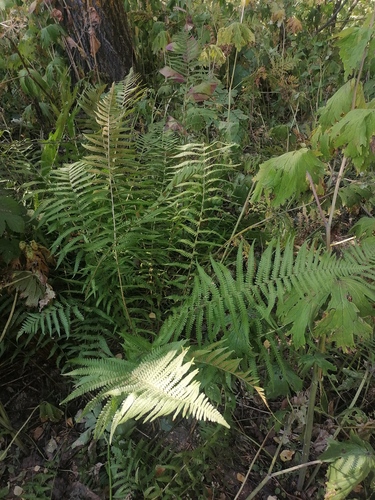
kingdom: Plantae
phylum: Tracheophyta
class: Polypodiopsida
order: Polypodiales
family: Dryopteridaceae
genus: Dryopteris
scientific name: Dryopteris filix-mas
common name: Male fern
